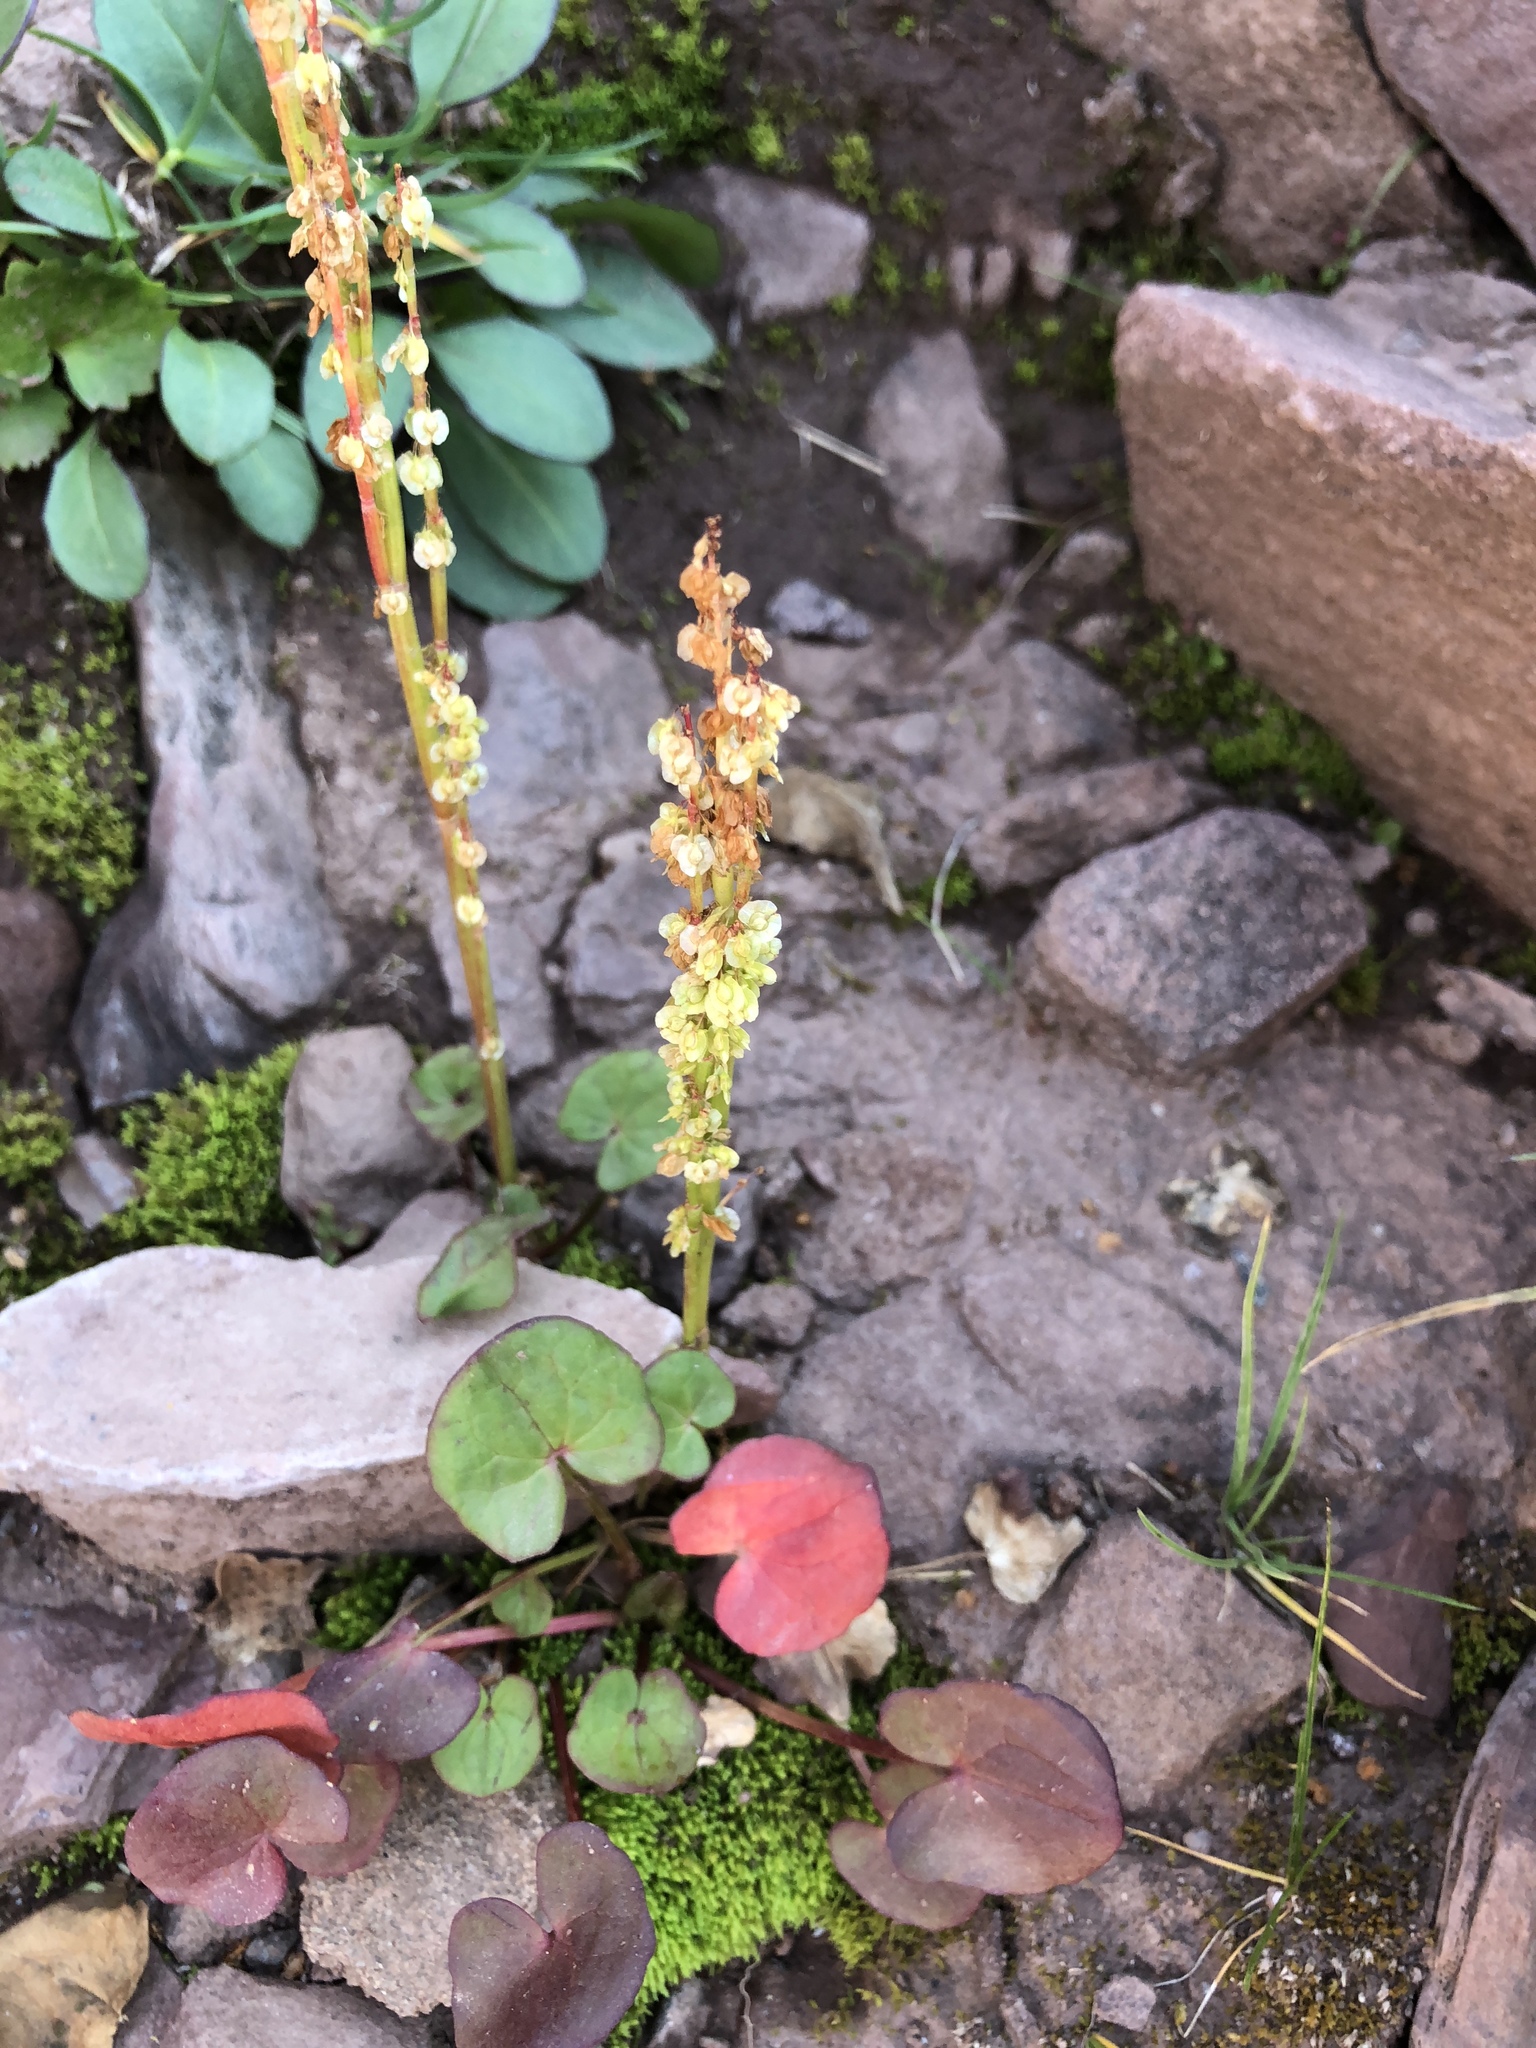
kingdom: Plantae
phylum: Tracheophyta
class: Magnoliopsida
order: Caryophyllales
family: Polygonaceae
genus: Oxyria
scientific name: Oxyria digyna
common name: Alpine mountain-sorrel
